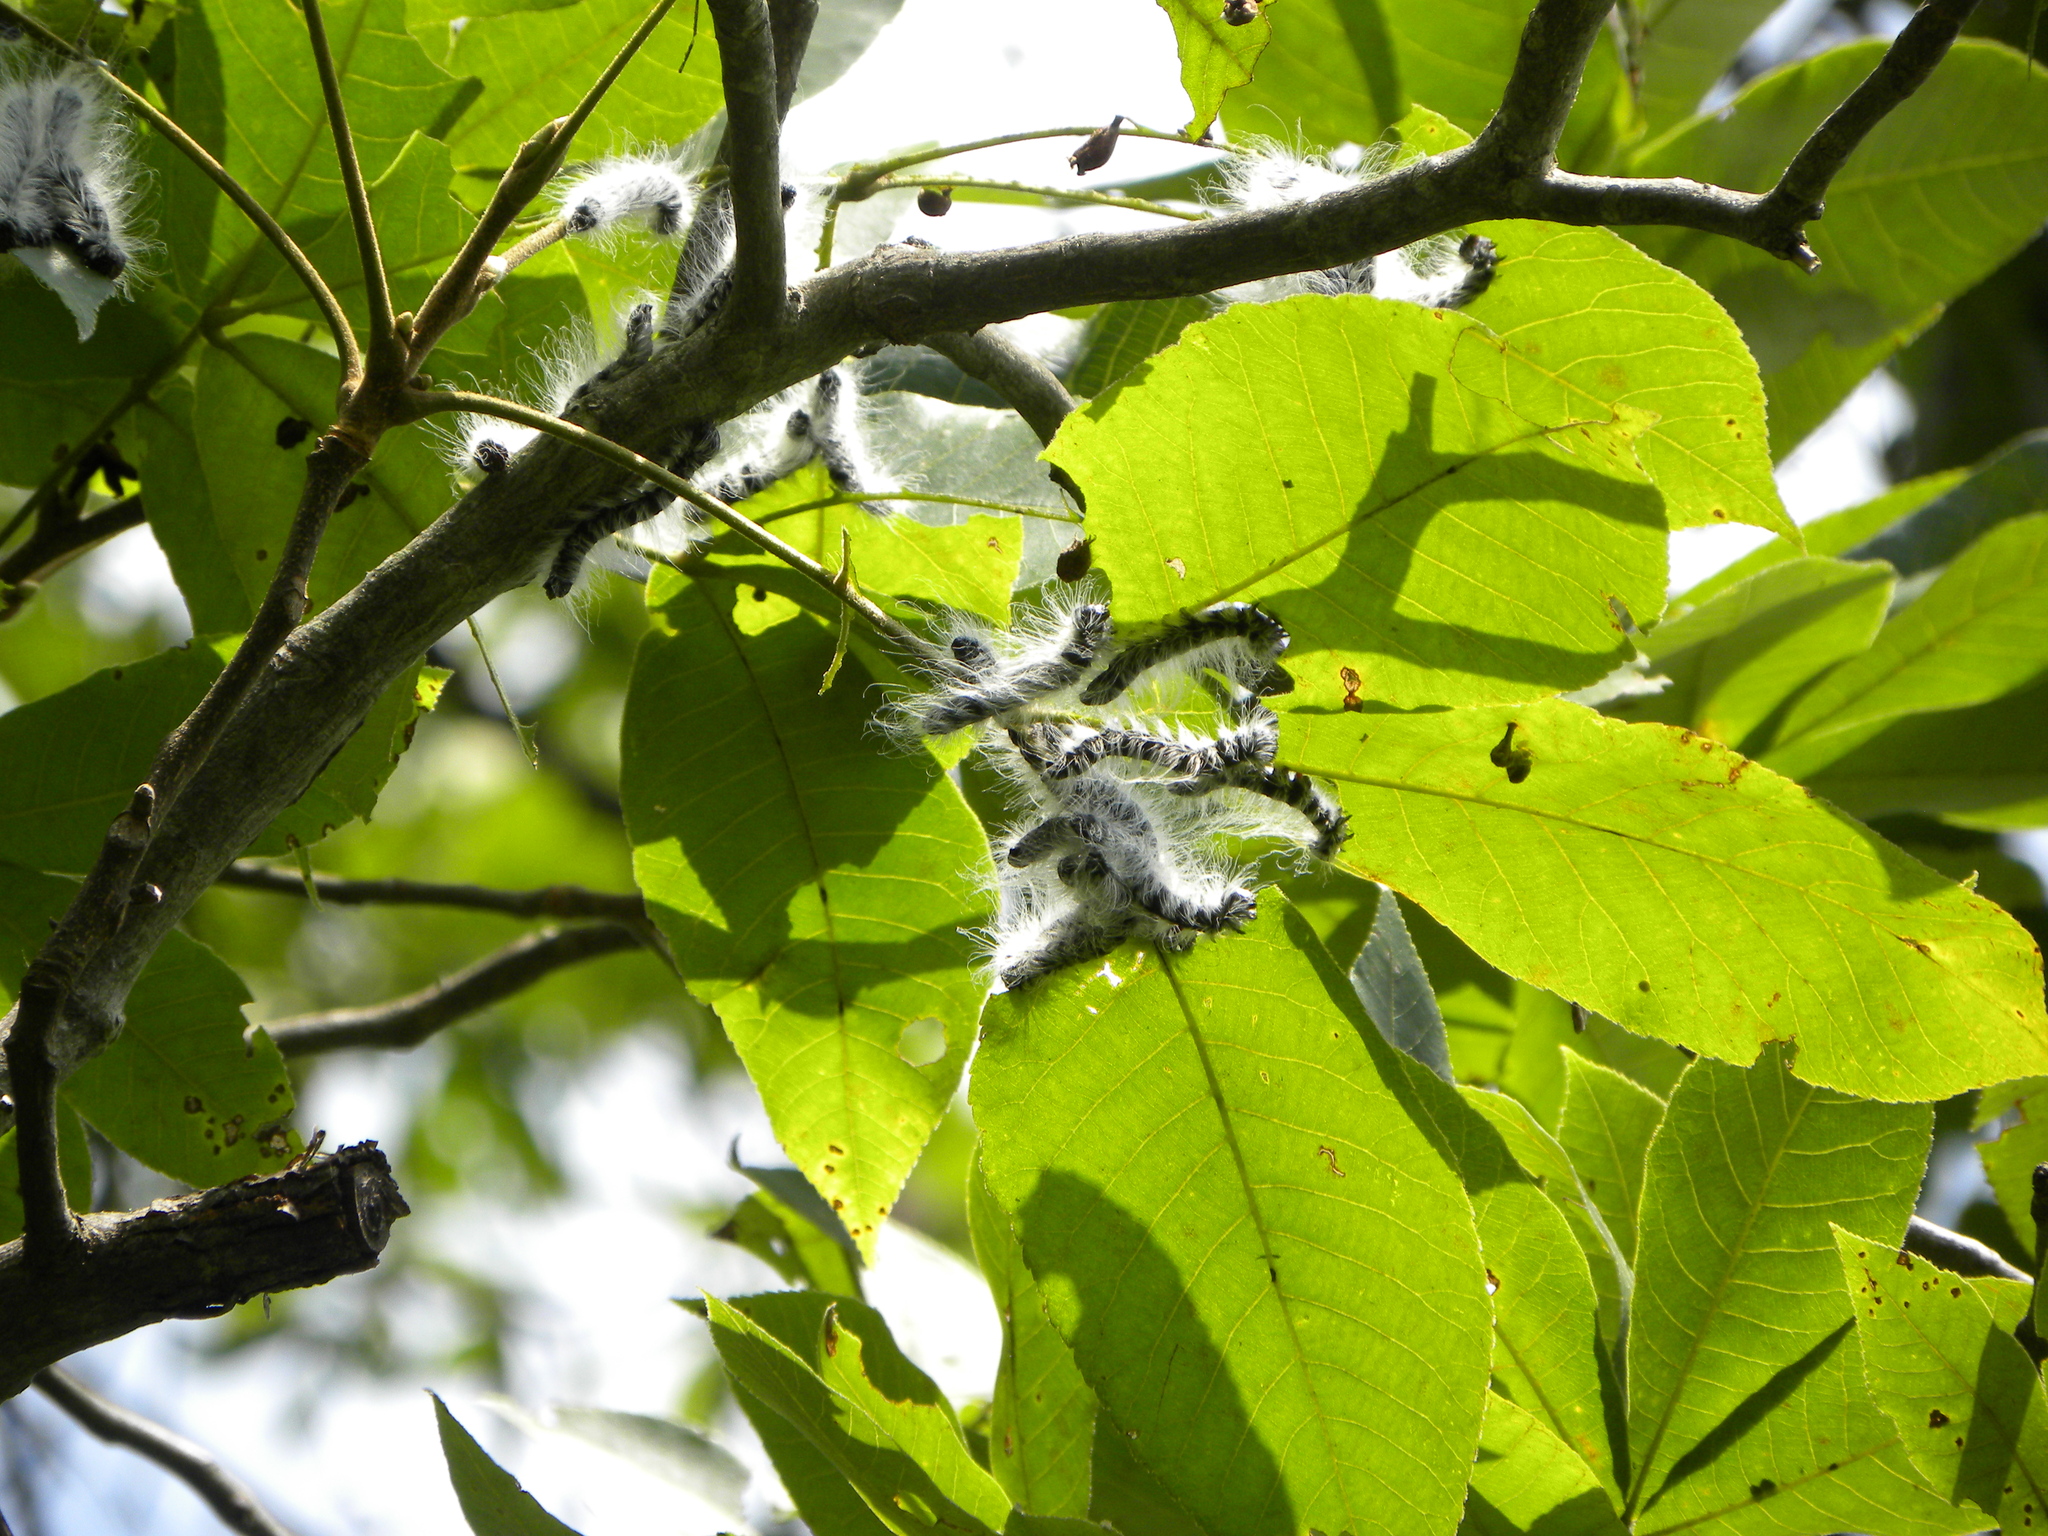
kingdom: Animalia
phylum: Arthropoda
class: Insecta
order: Lepidoptera
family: Notodontidae
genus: Datana
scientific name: Datana integerrima
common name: Walnut caterpillar
